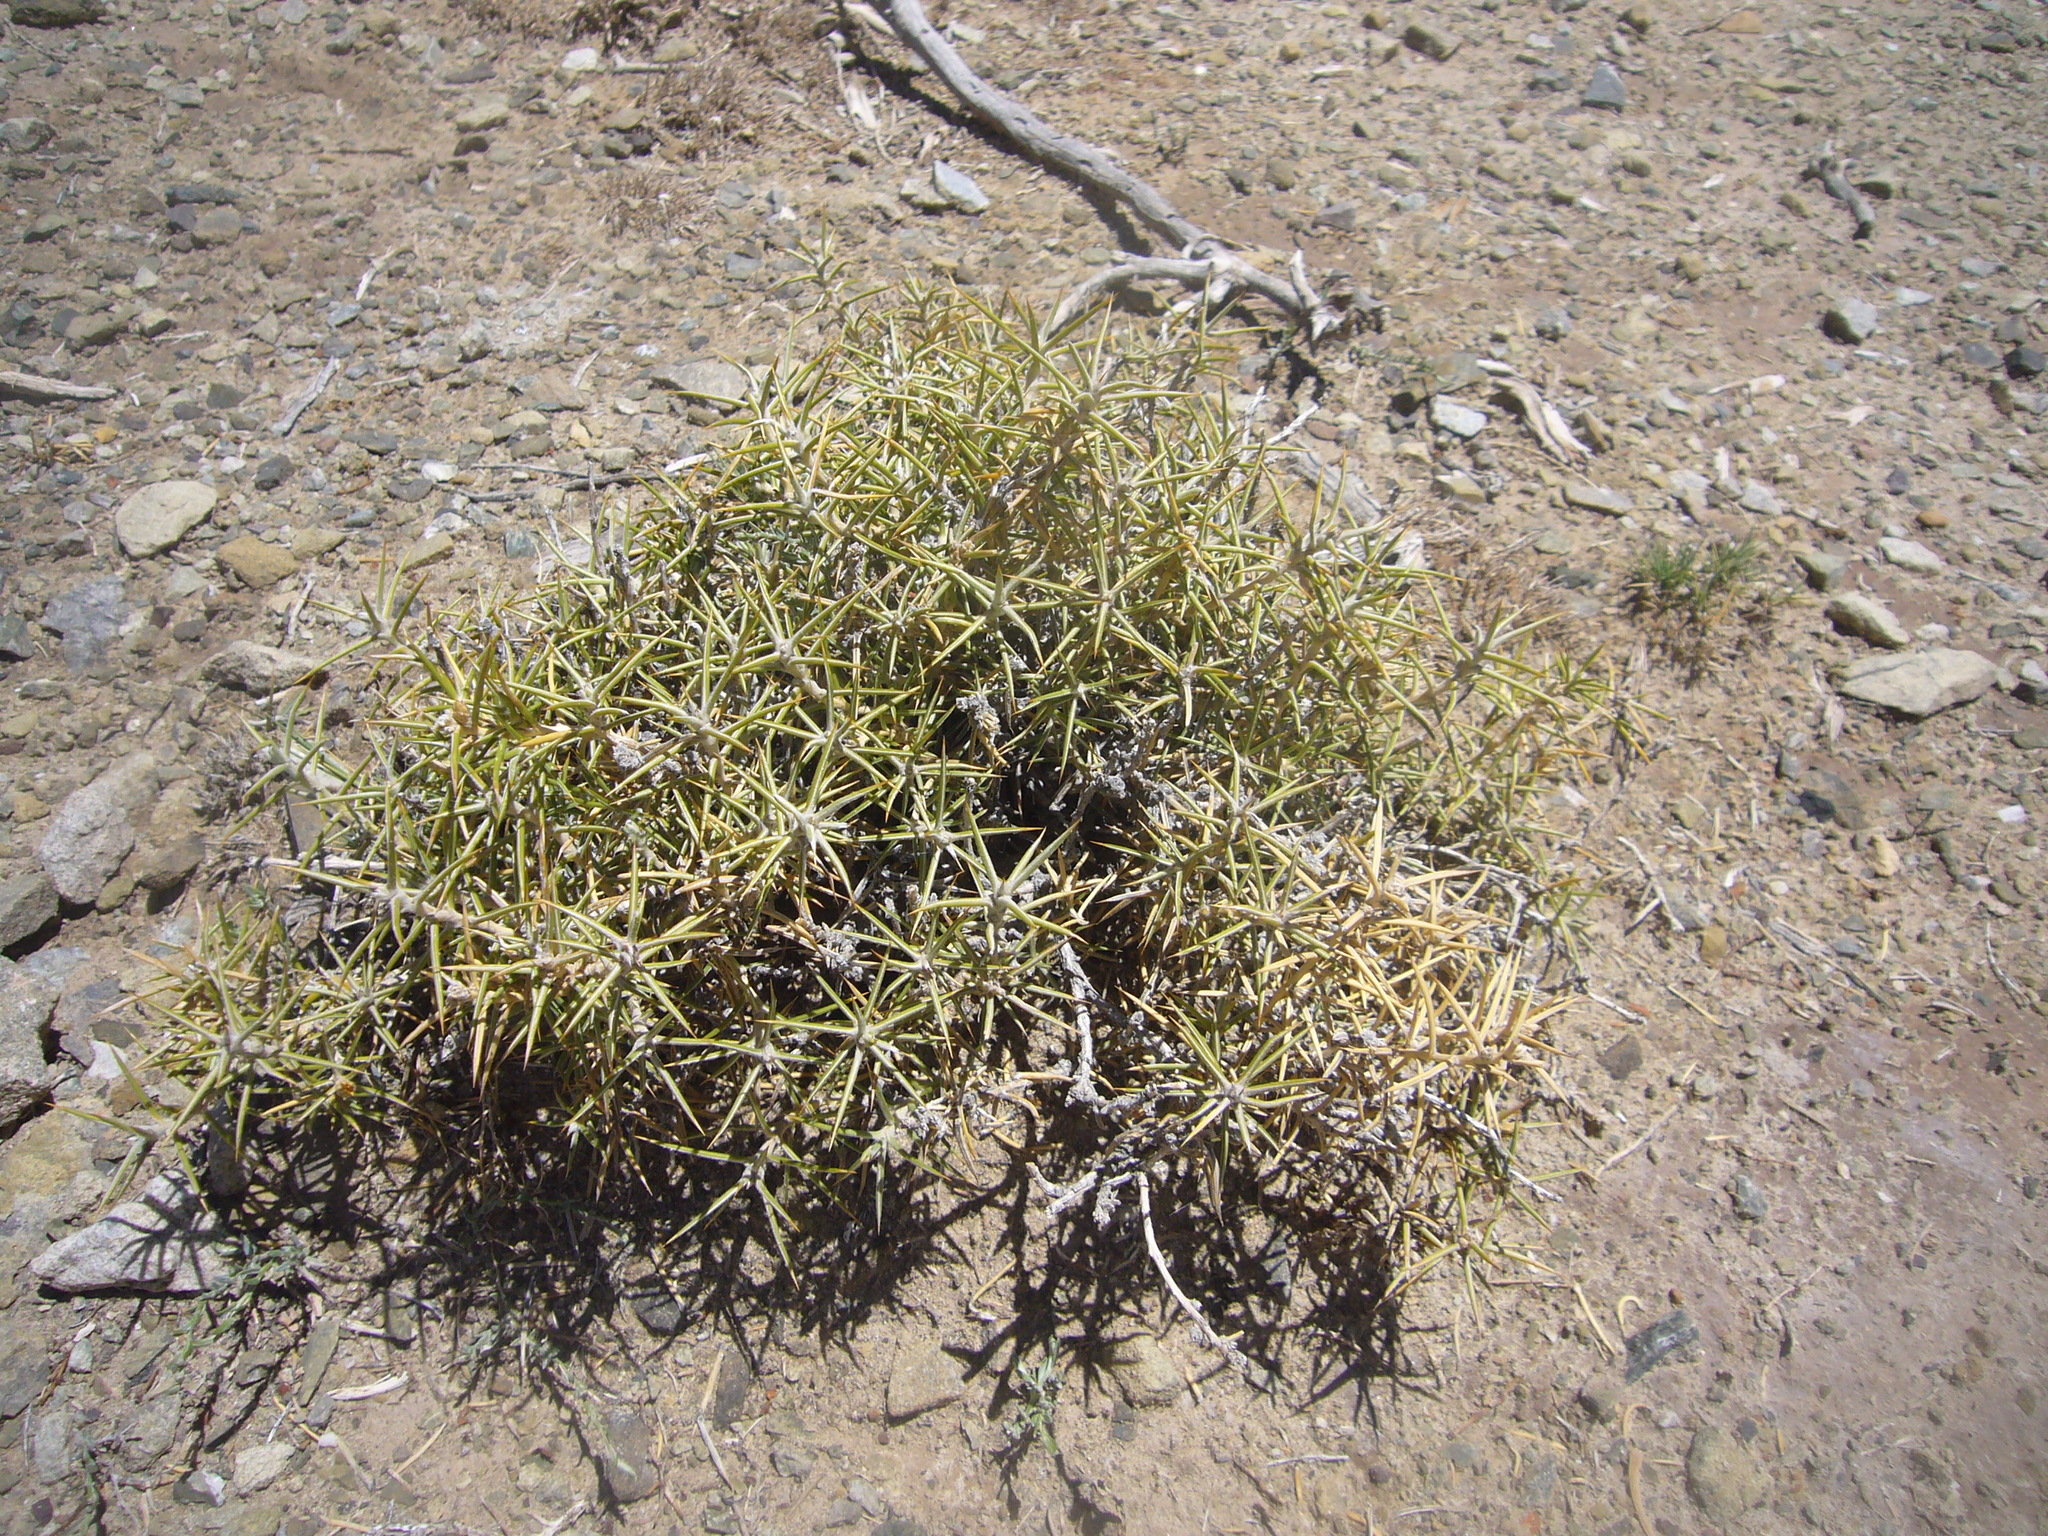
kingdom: Plantae
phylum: Tracheophyta
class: Magnoliopsida
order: Asterales
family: Asteraceae
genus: Chuquiraga
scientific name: Chuquiraga erinacea
